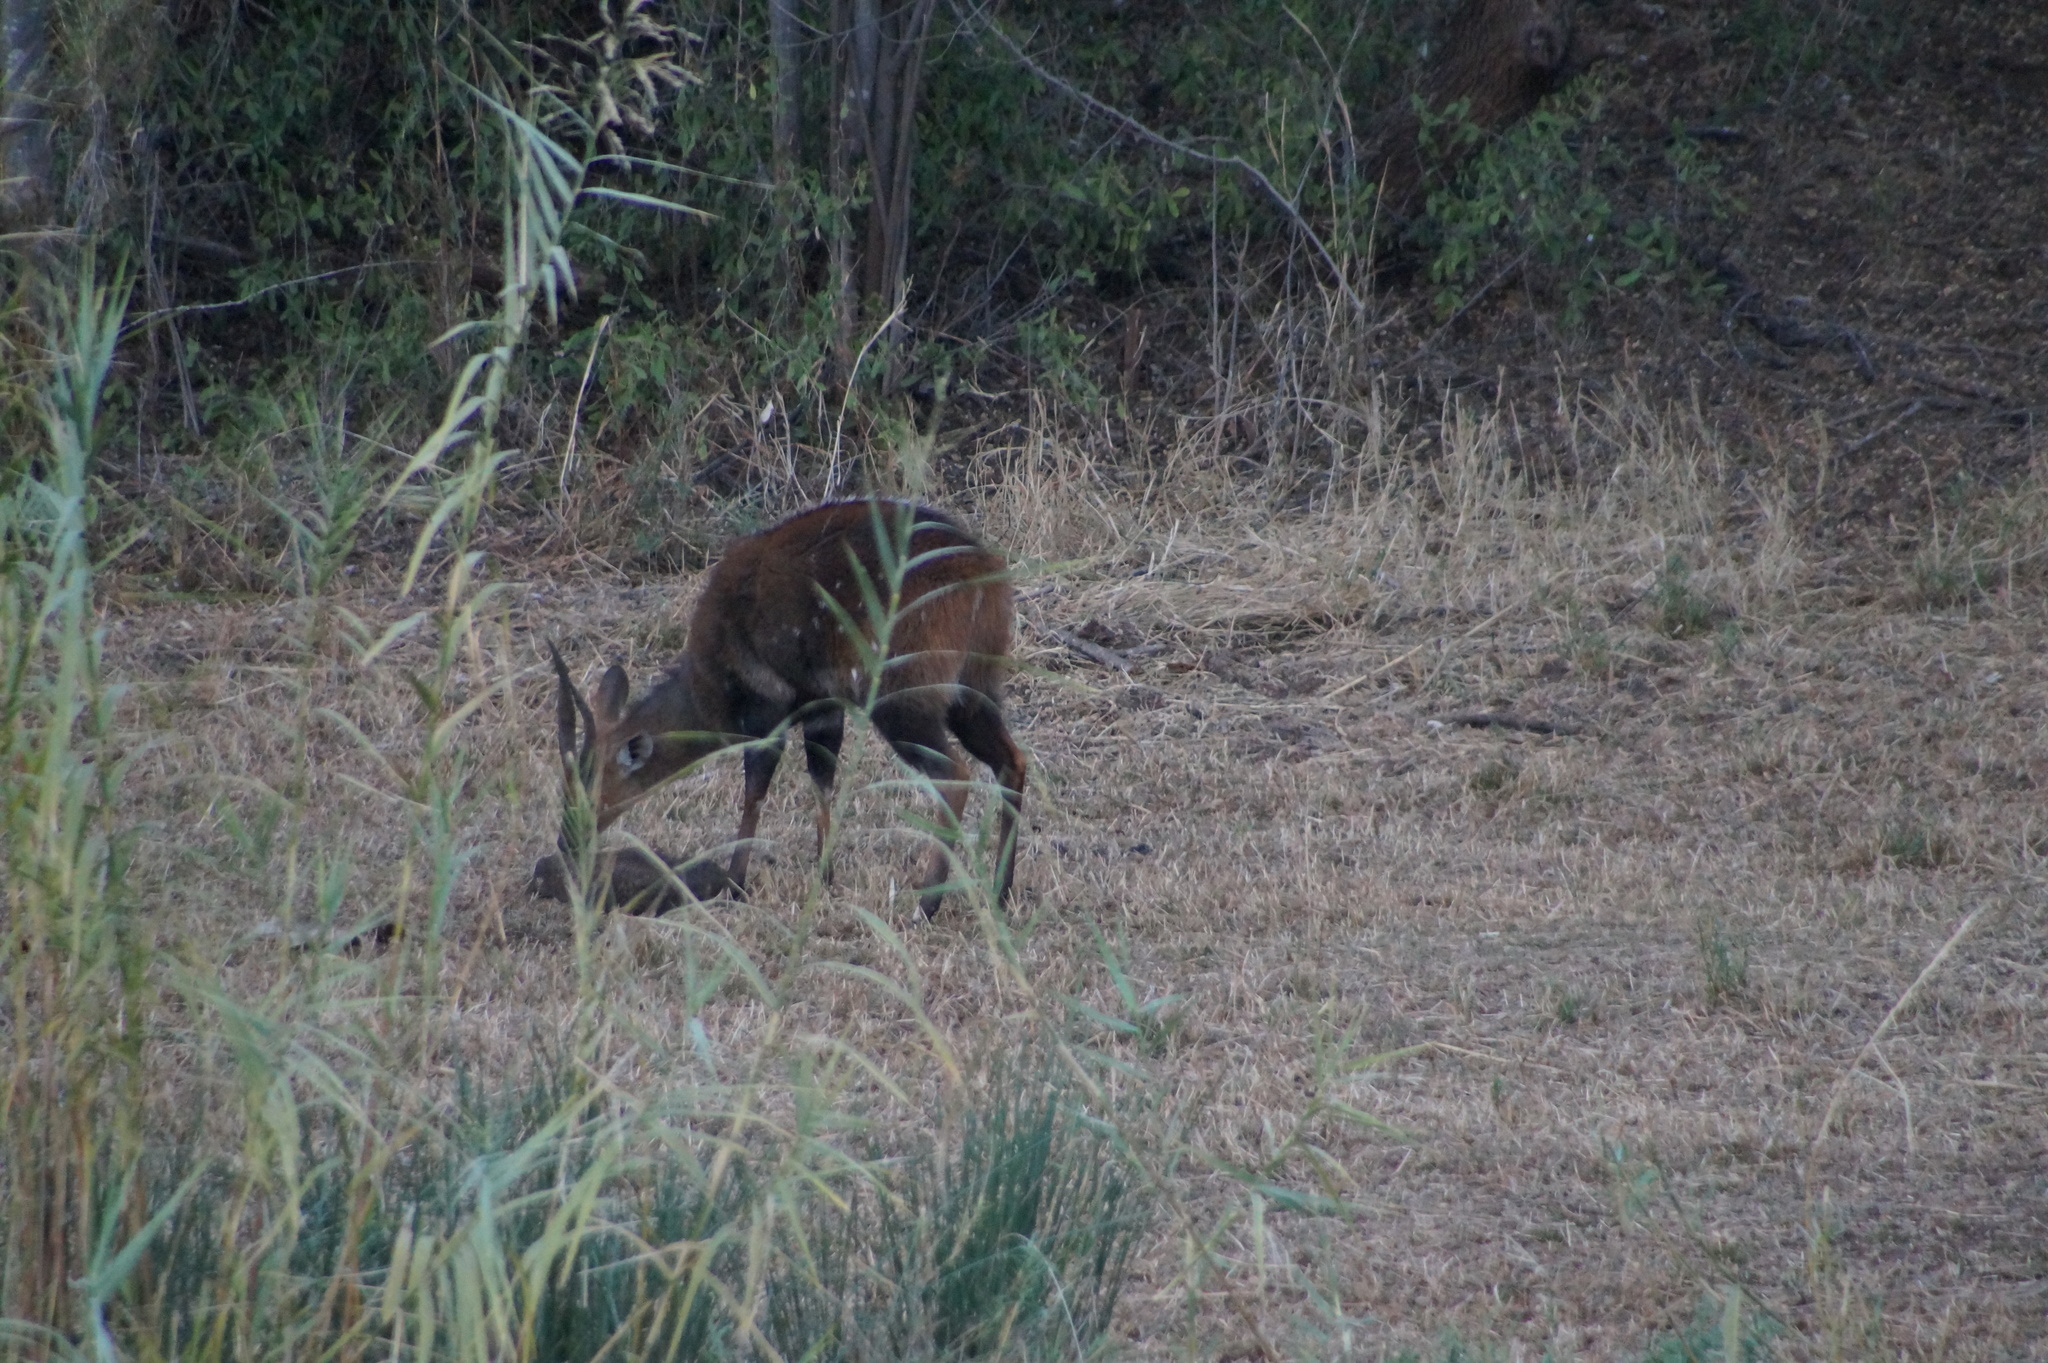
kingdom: Animalia
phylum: Chordata
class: Mammalia
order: Artiodactyla
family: Bovidae
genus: Tragelaphus
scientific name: Tragelaphus scriptus
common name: Bushbuck
